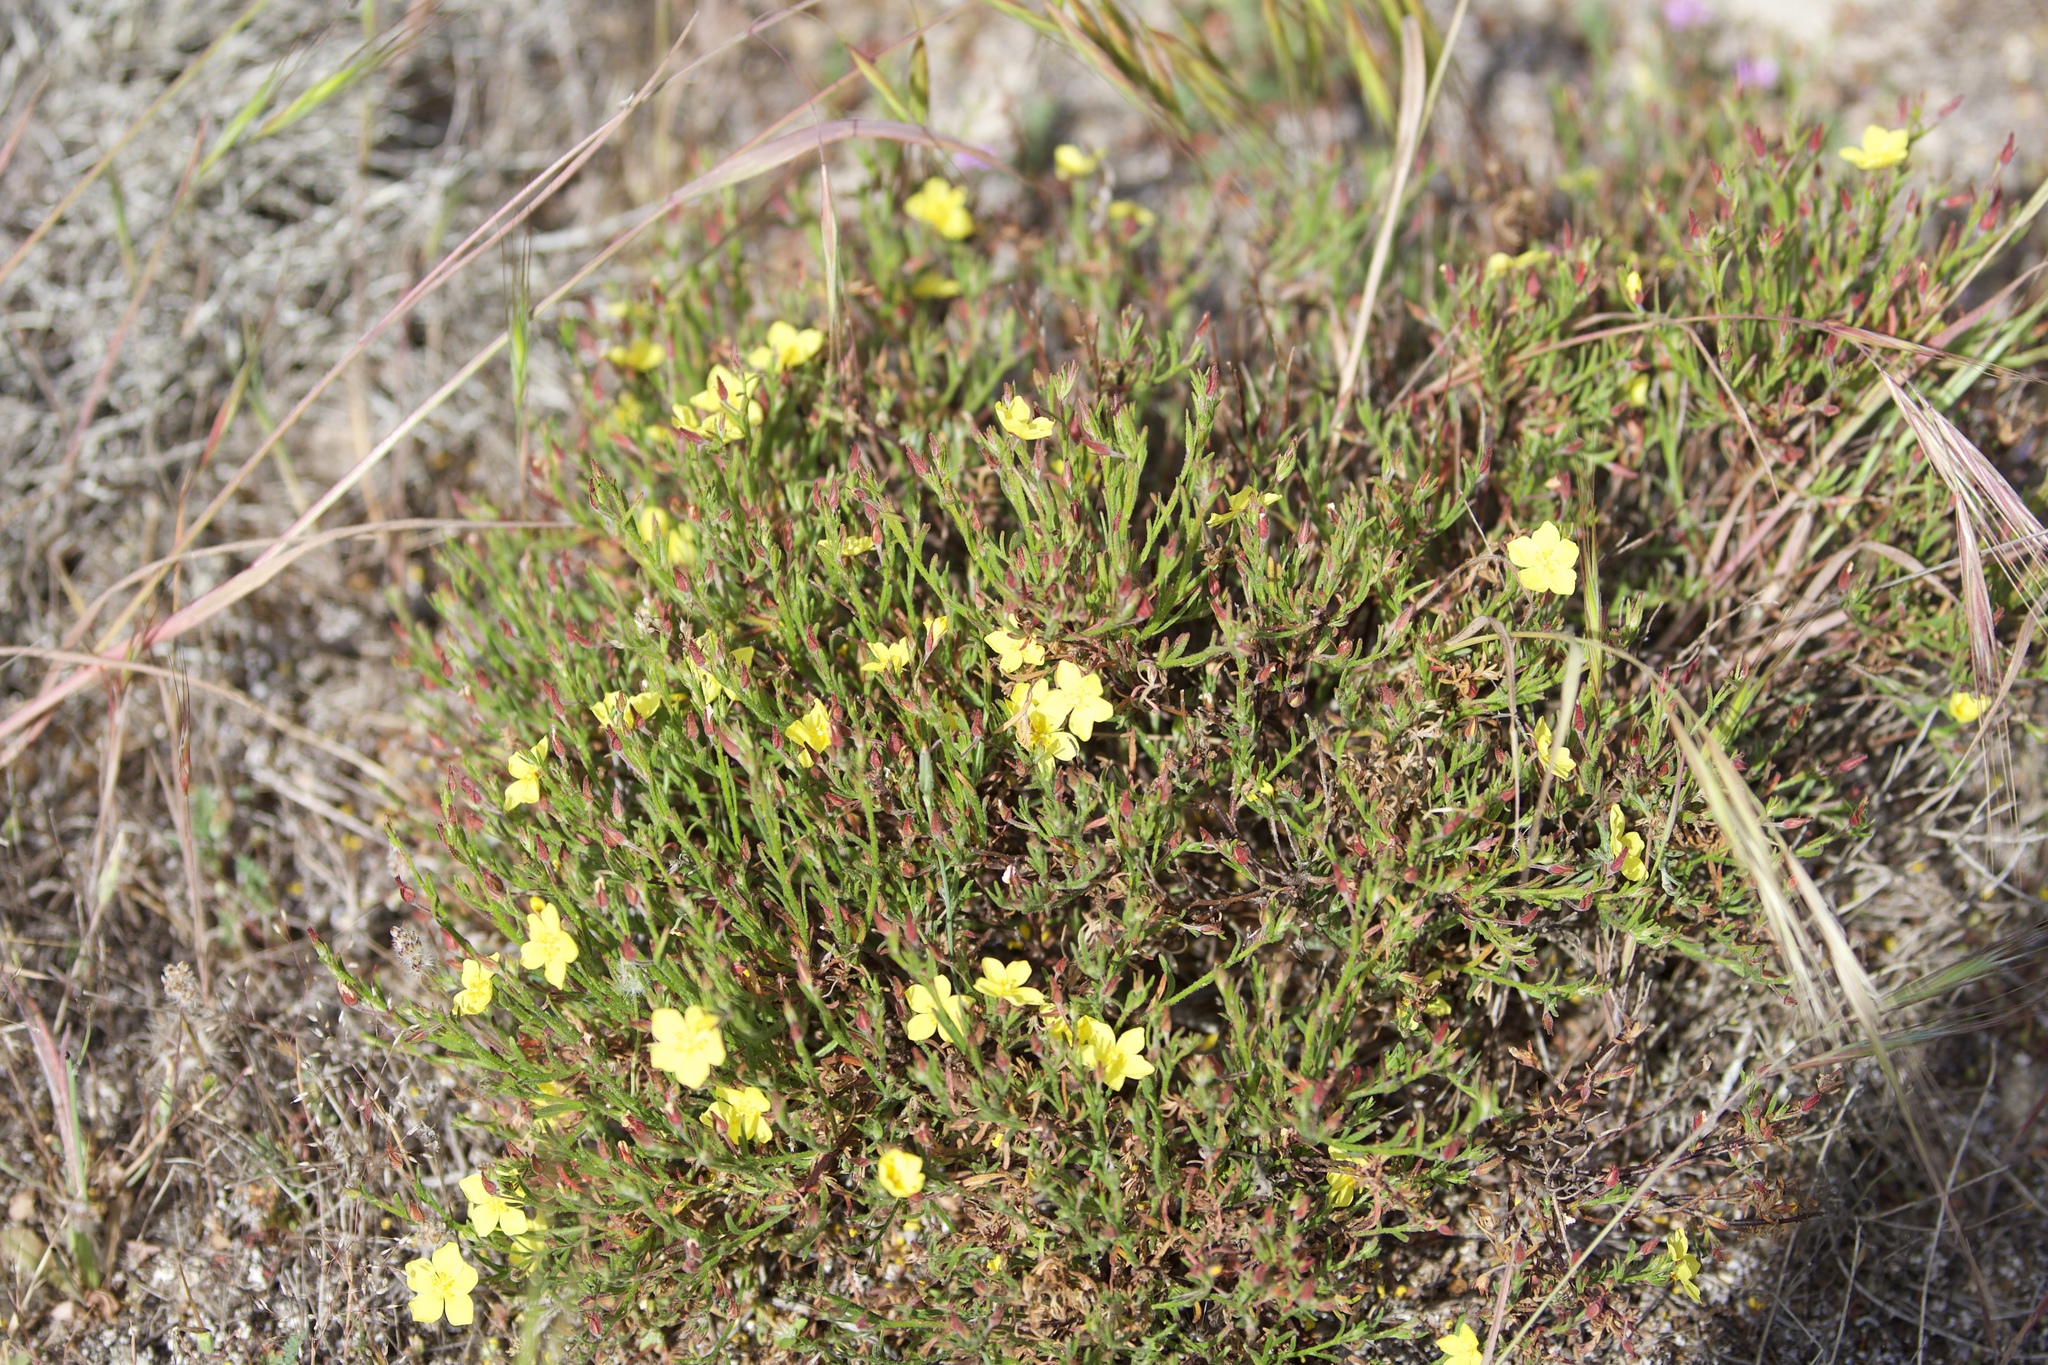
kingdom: Plantae
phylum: Tracheophyta
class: Magnoliopsida
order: Malvales
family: Cistaceae
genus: Crocanthemum
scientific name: Crocanthemum scoparium
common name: Broom-rose
